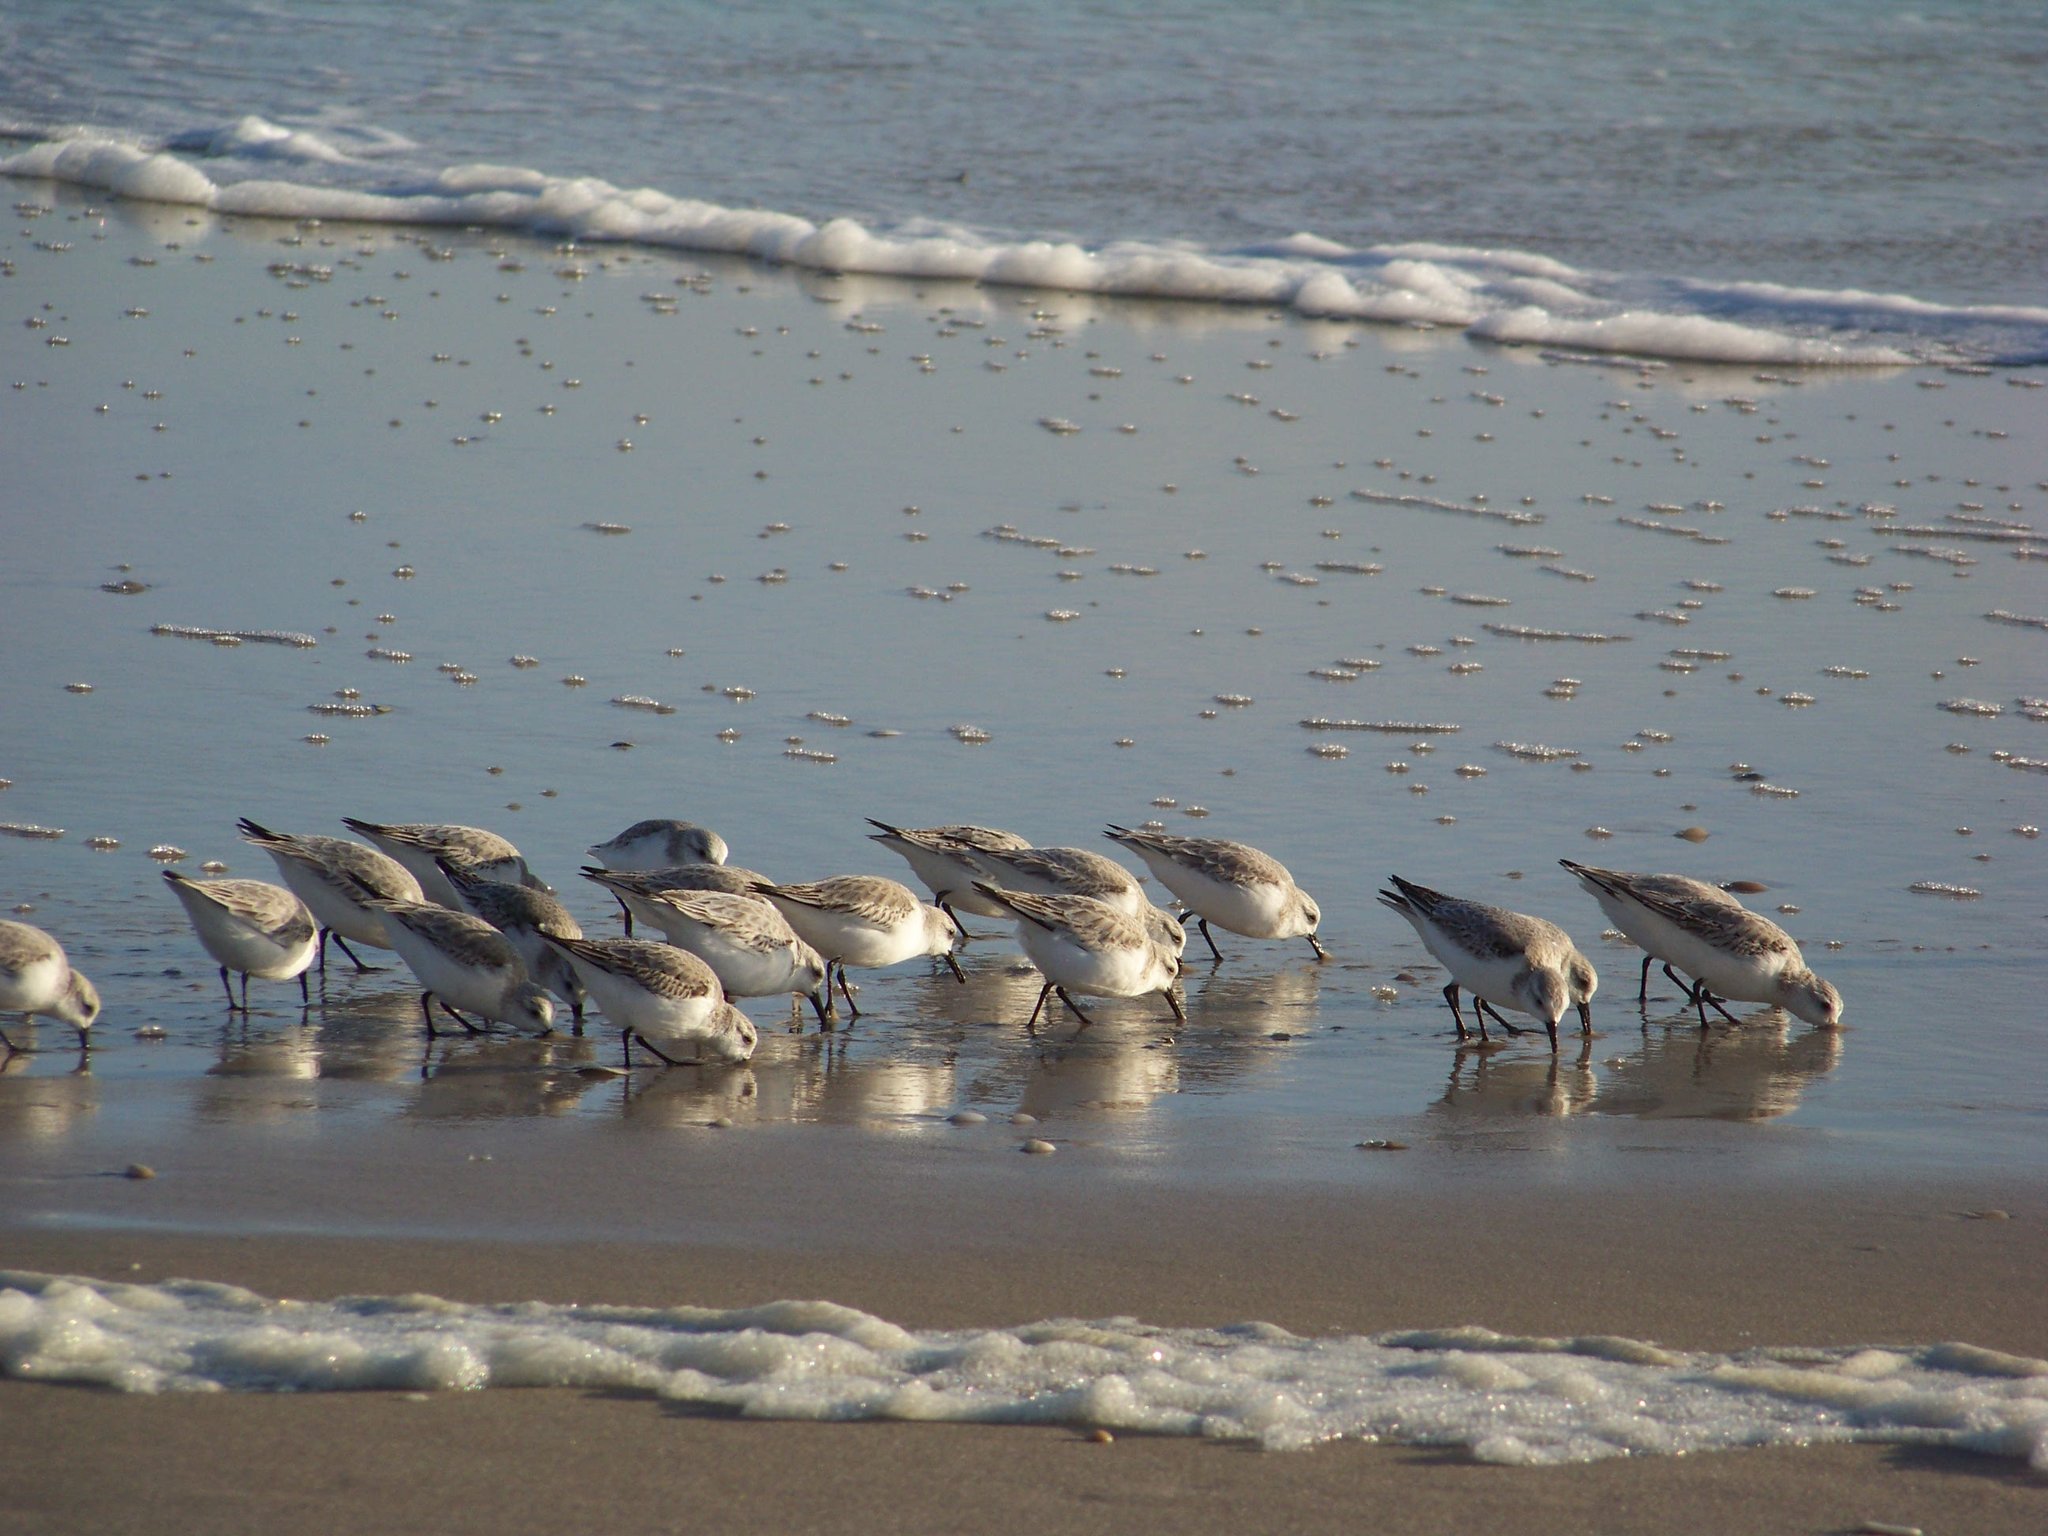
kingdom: Animalia
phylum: Chordata
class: Aves
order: Charadriiformes
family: Scolopacidae
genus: Calidris
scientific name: Calidris alba
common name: Sanderling
